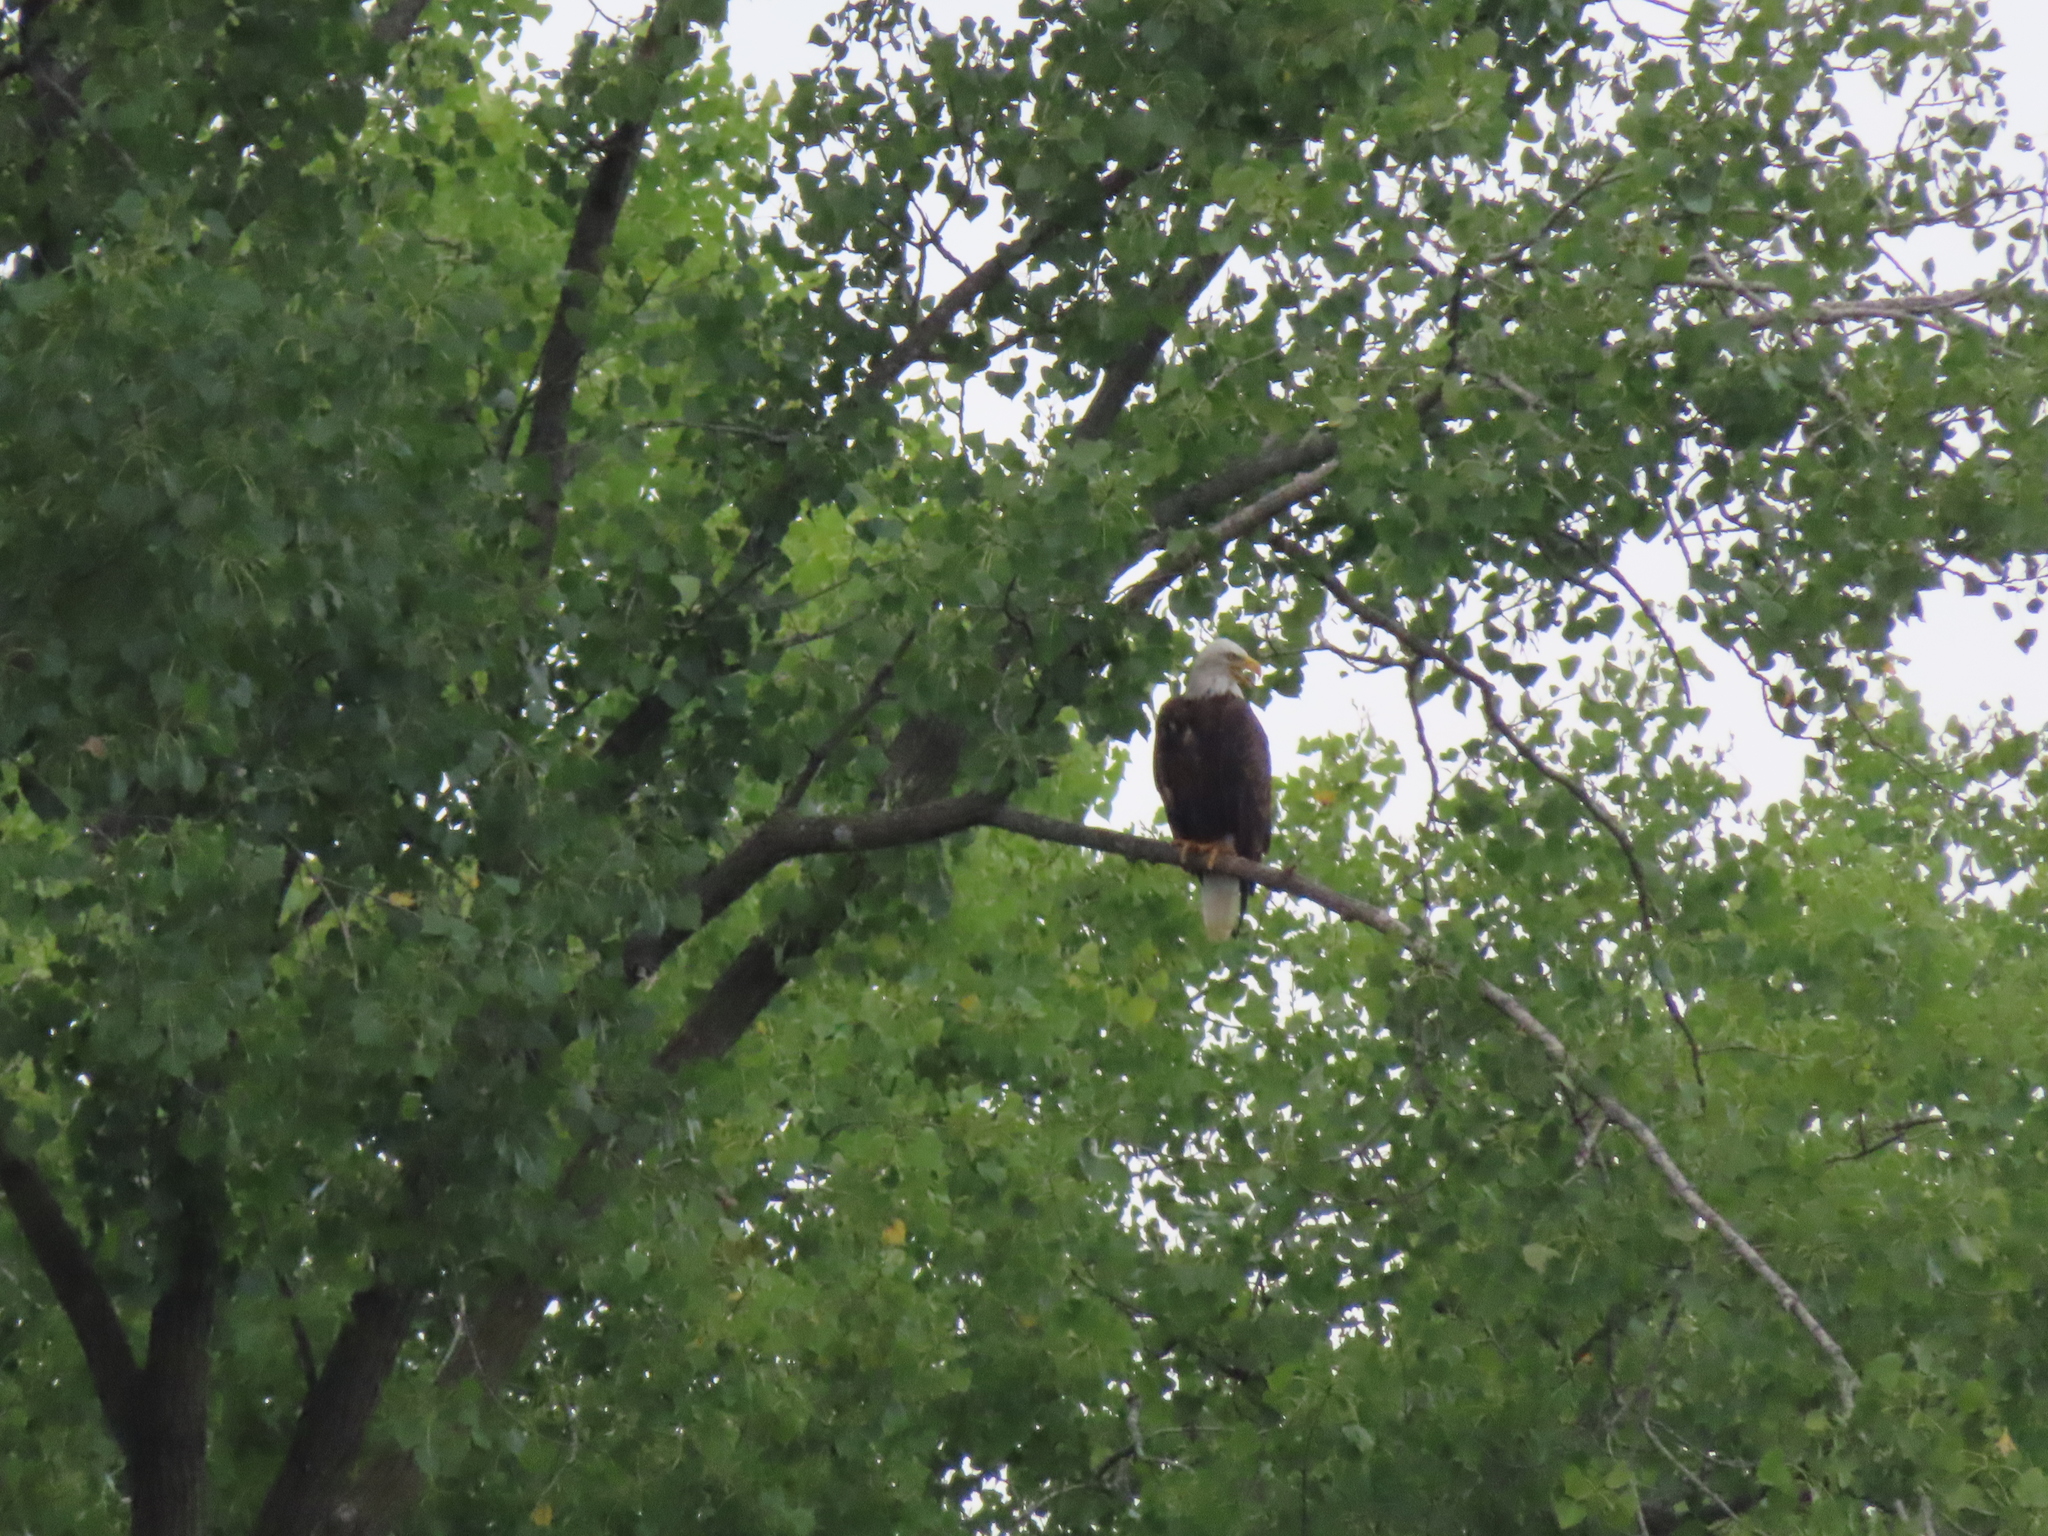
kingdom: Animalia
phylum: Chordata
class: Aves
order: Accipitriformes
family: Accipitridae
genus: Haliaeetus
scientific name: Haliaeetus leucocephalus
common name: Bald eagle
